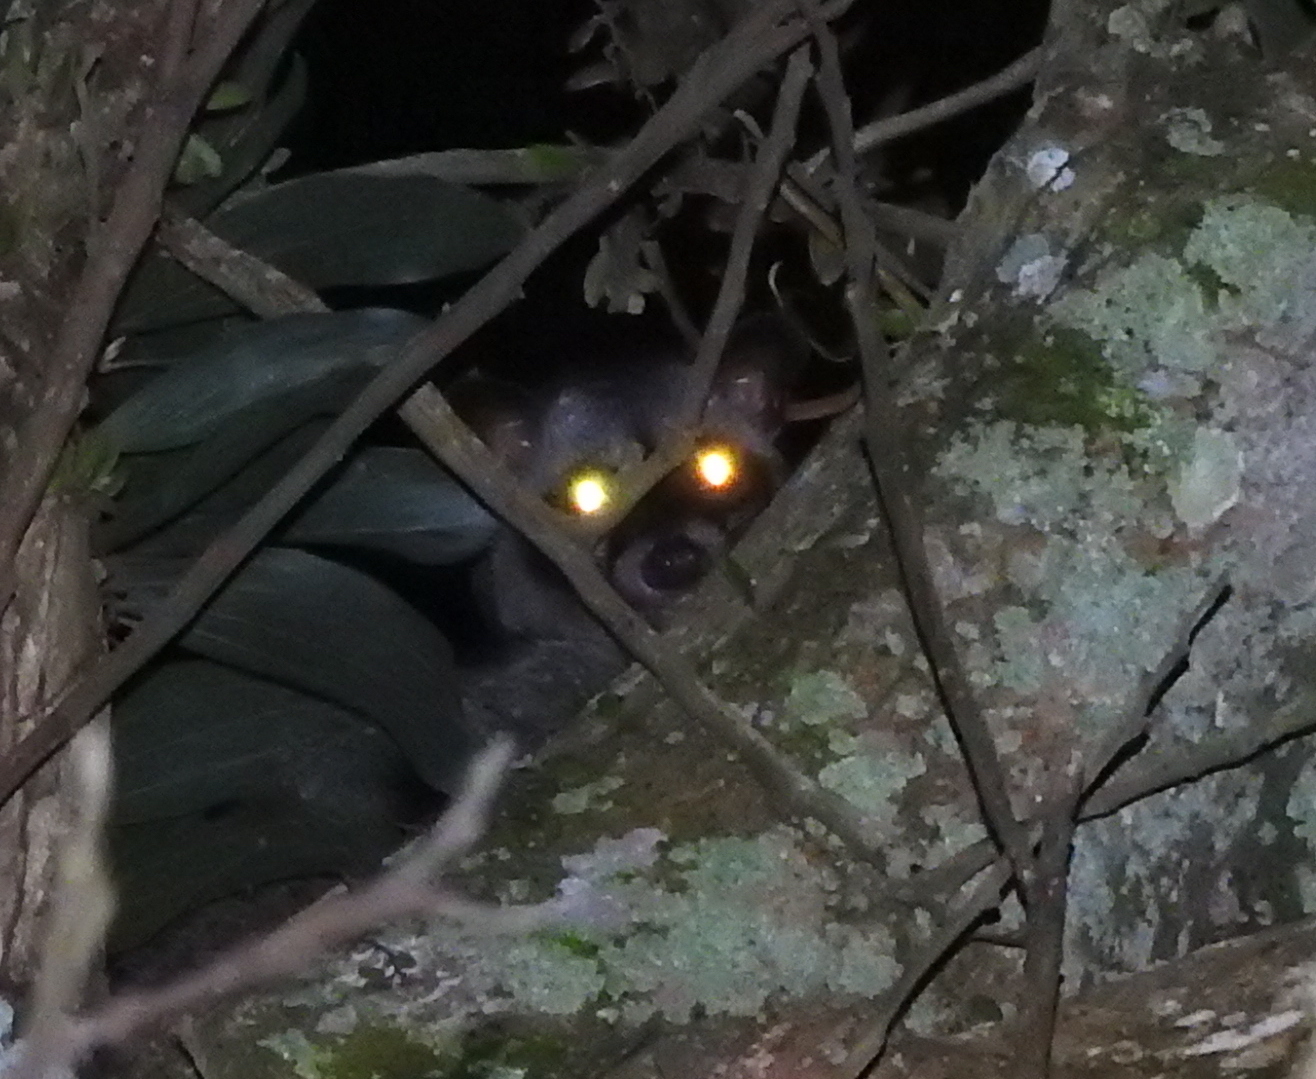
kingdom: Animalia
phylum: Chordata
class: Mammalia
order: Carnivora
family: Viverridae
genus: Paradoxurus
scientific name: Paradoxurus hermaphroditus
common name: Common palm civet
